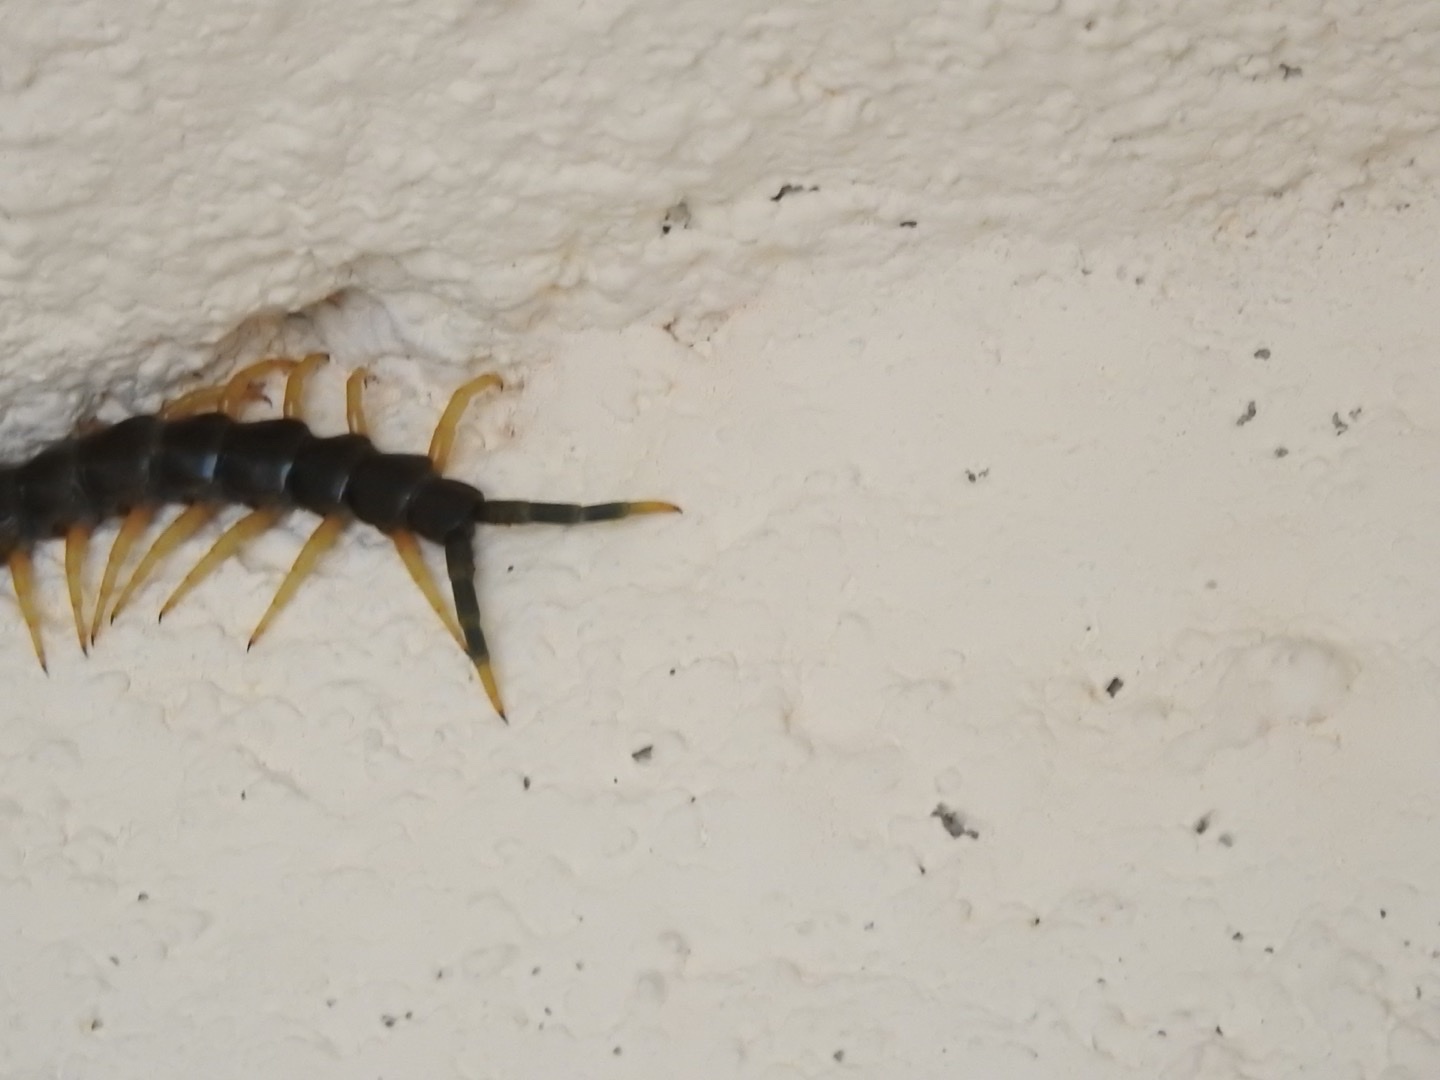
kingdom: Animalia
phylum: Arthropoda
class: Chilopoda
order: Scolopendromorpha
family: Scolopendridae
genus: Scolopendra
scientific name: Scolopendra heros
